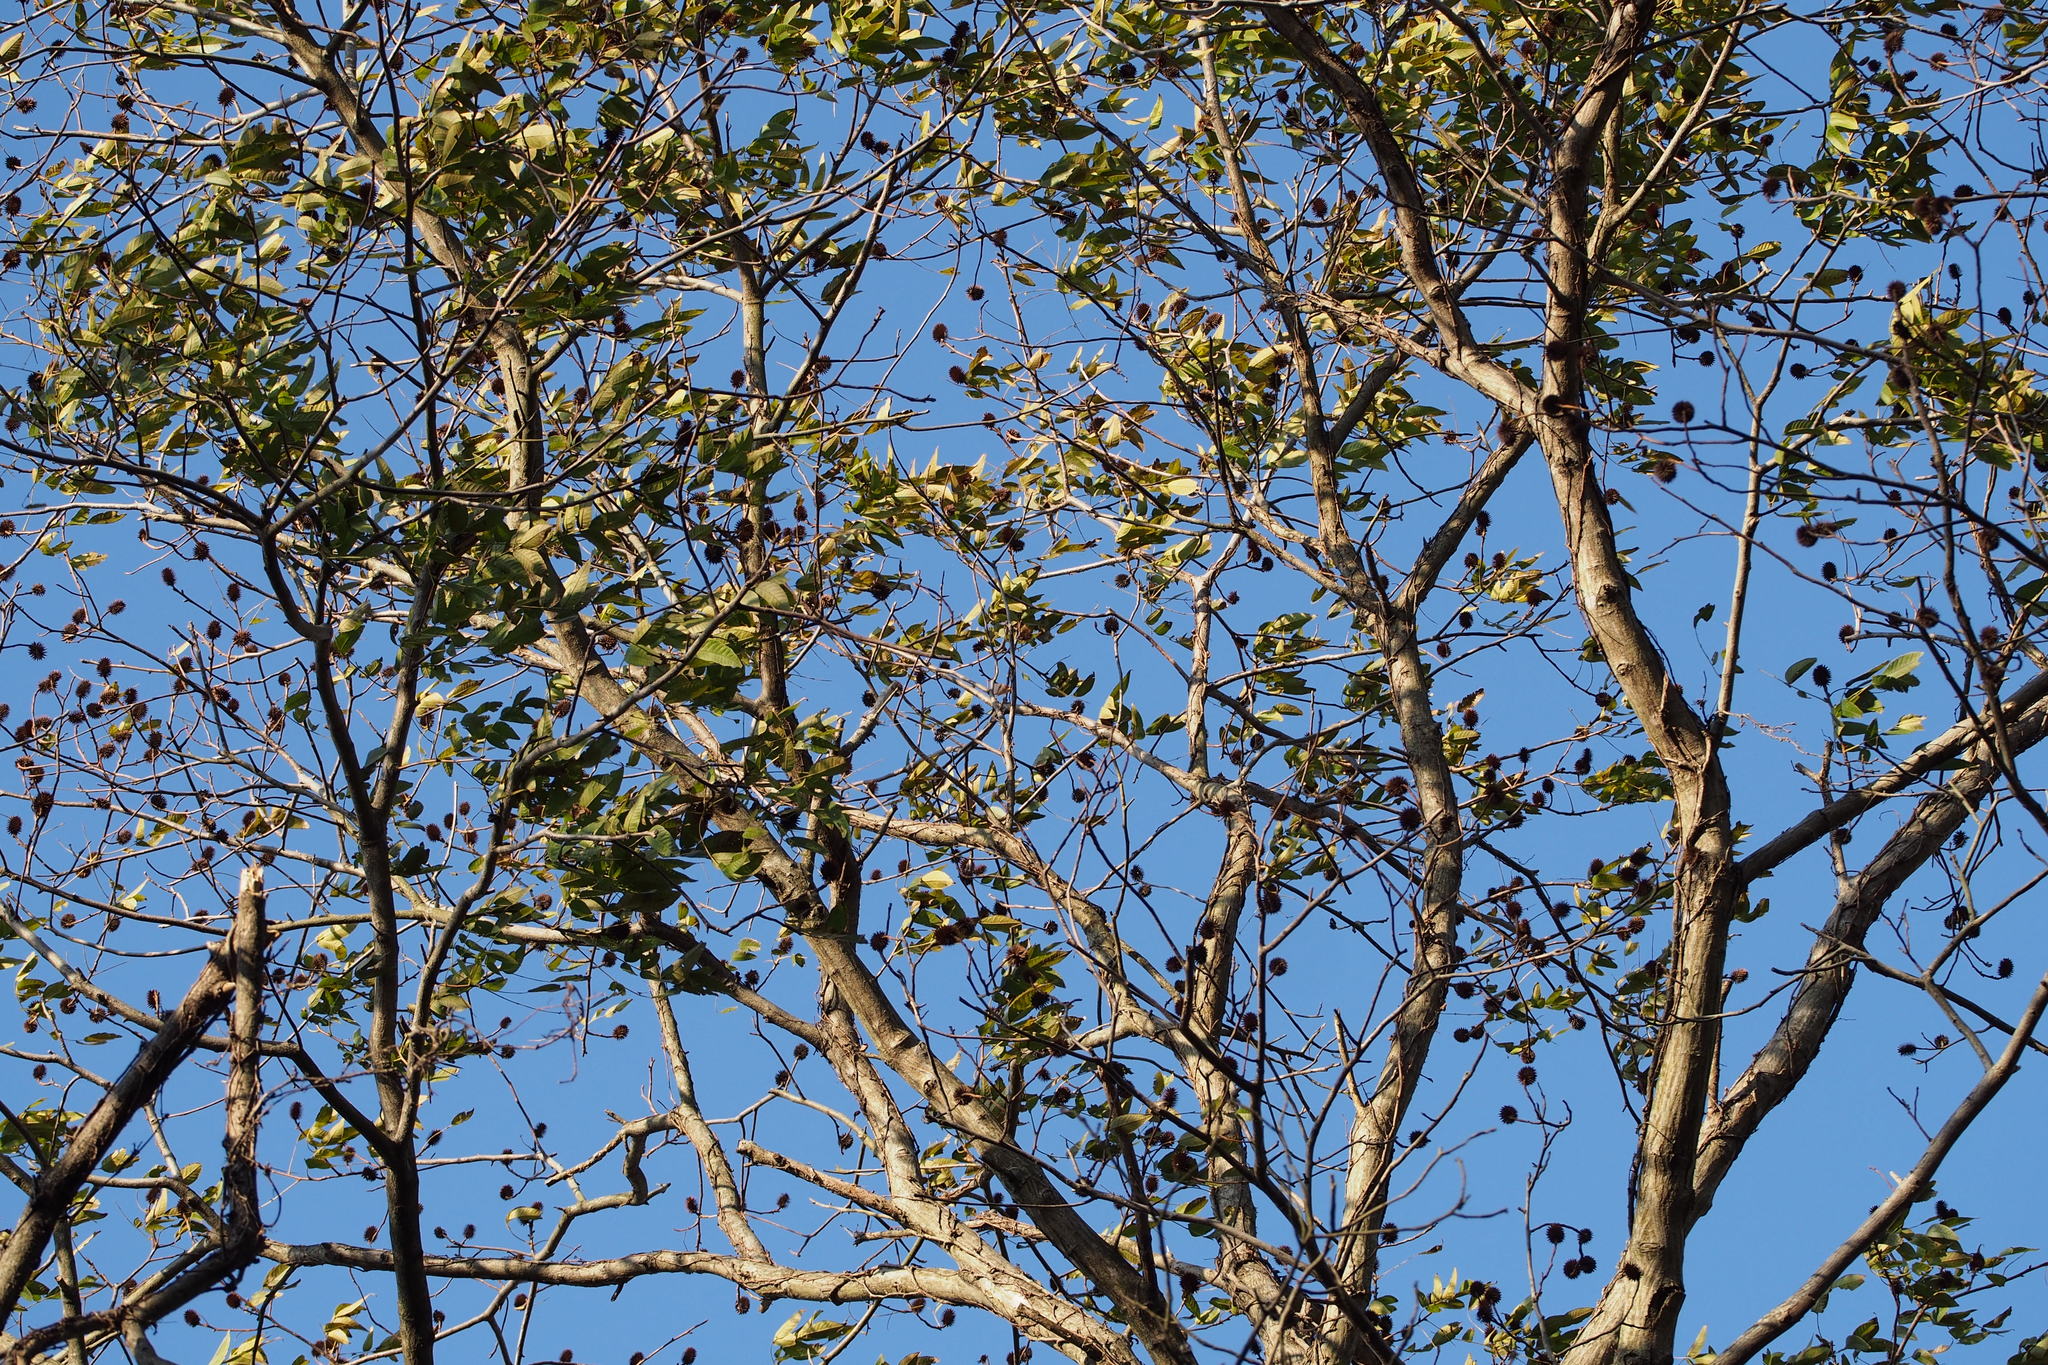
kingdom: Plantae
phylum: Tracheophyta
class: Magnoliopsida
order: Fagales
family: Juglandaceae
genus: Platycarya
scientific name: Platycarya strobilacea
